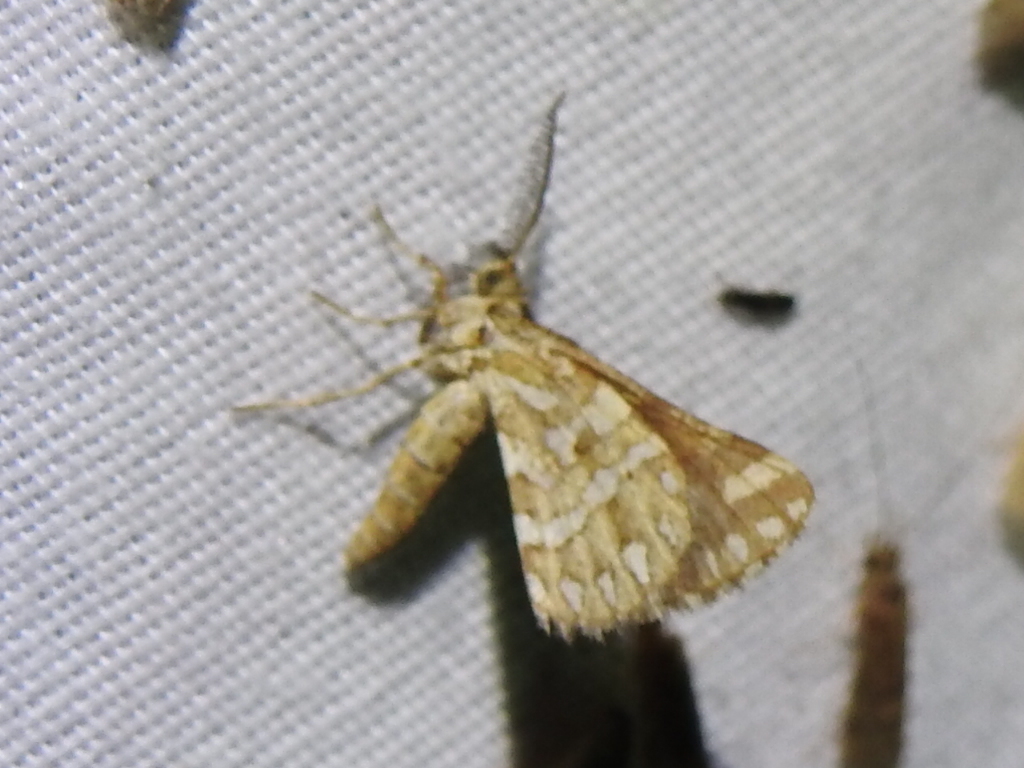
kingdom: Animalia
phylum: Arthropoda
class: Insecta
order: Lepidoptera
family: Geometridae
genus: Narraga
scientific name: Narraga fimetaria
